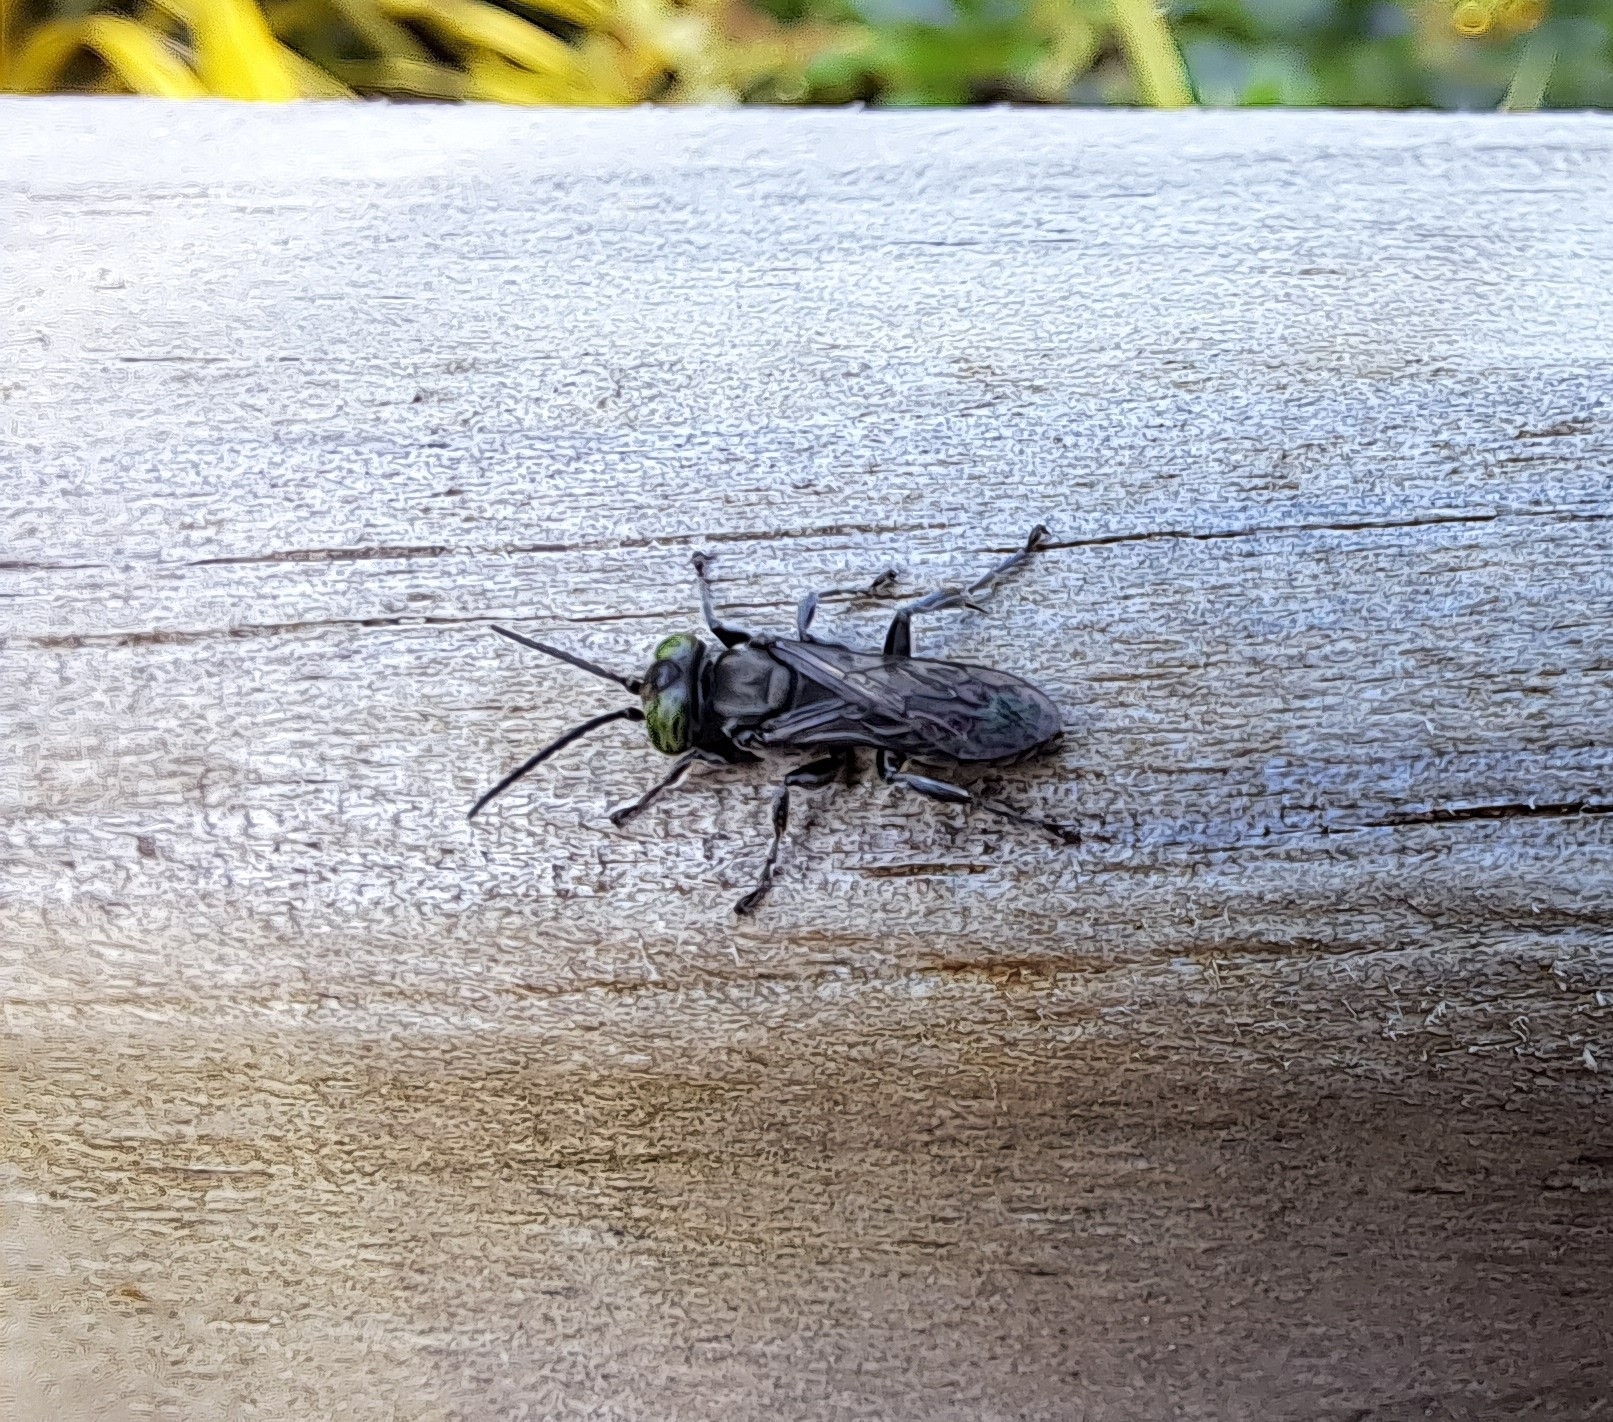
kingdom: Animalia
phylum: Arthropoda
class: Insecta
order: Hymenoptera
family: Crabronidae
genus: Tachysphex
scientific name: Tachysphex nigerrimus
